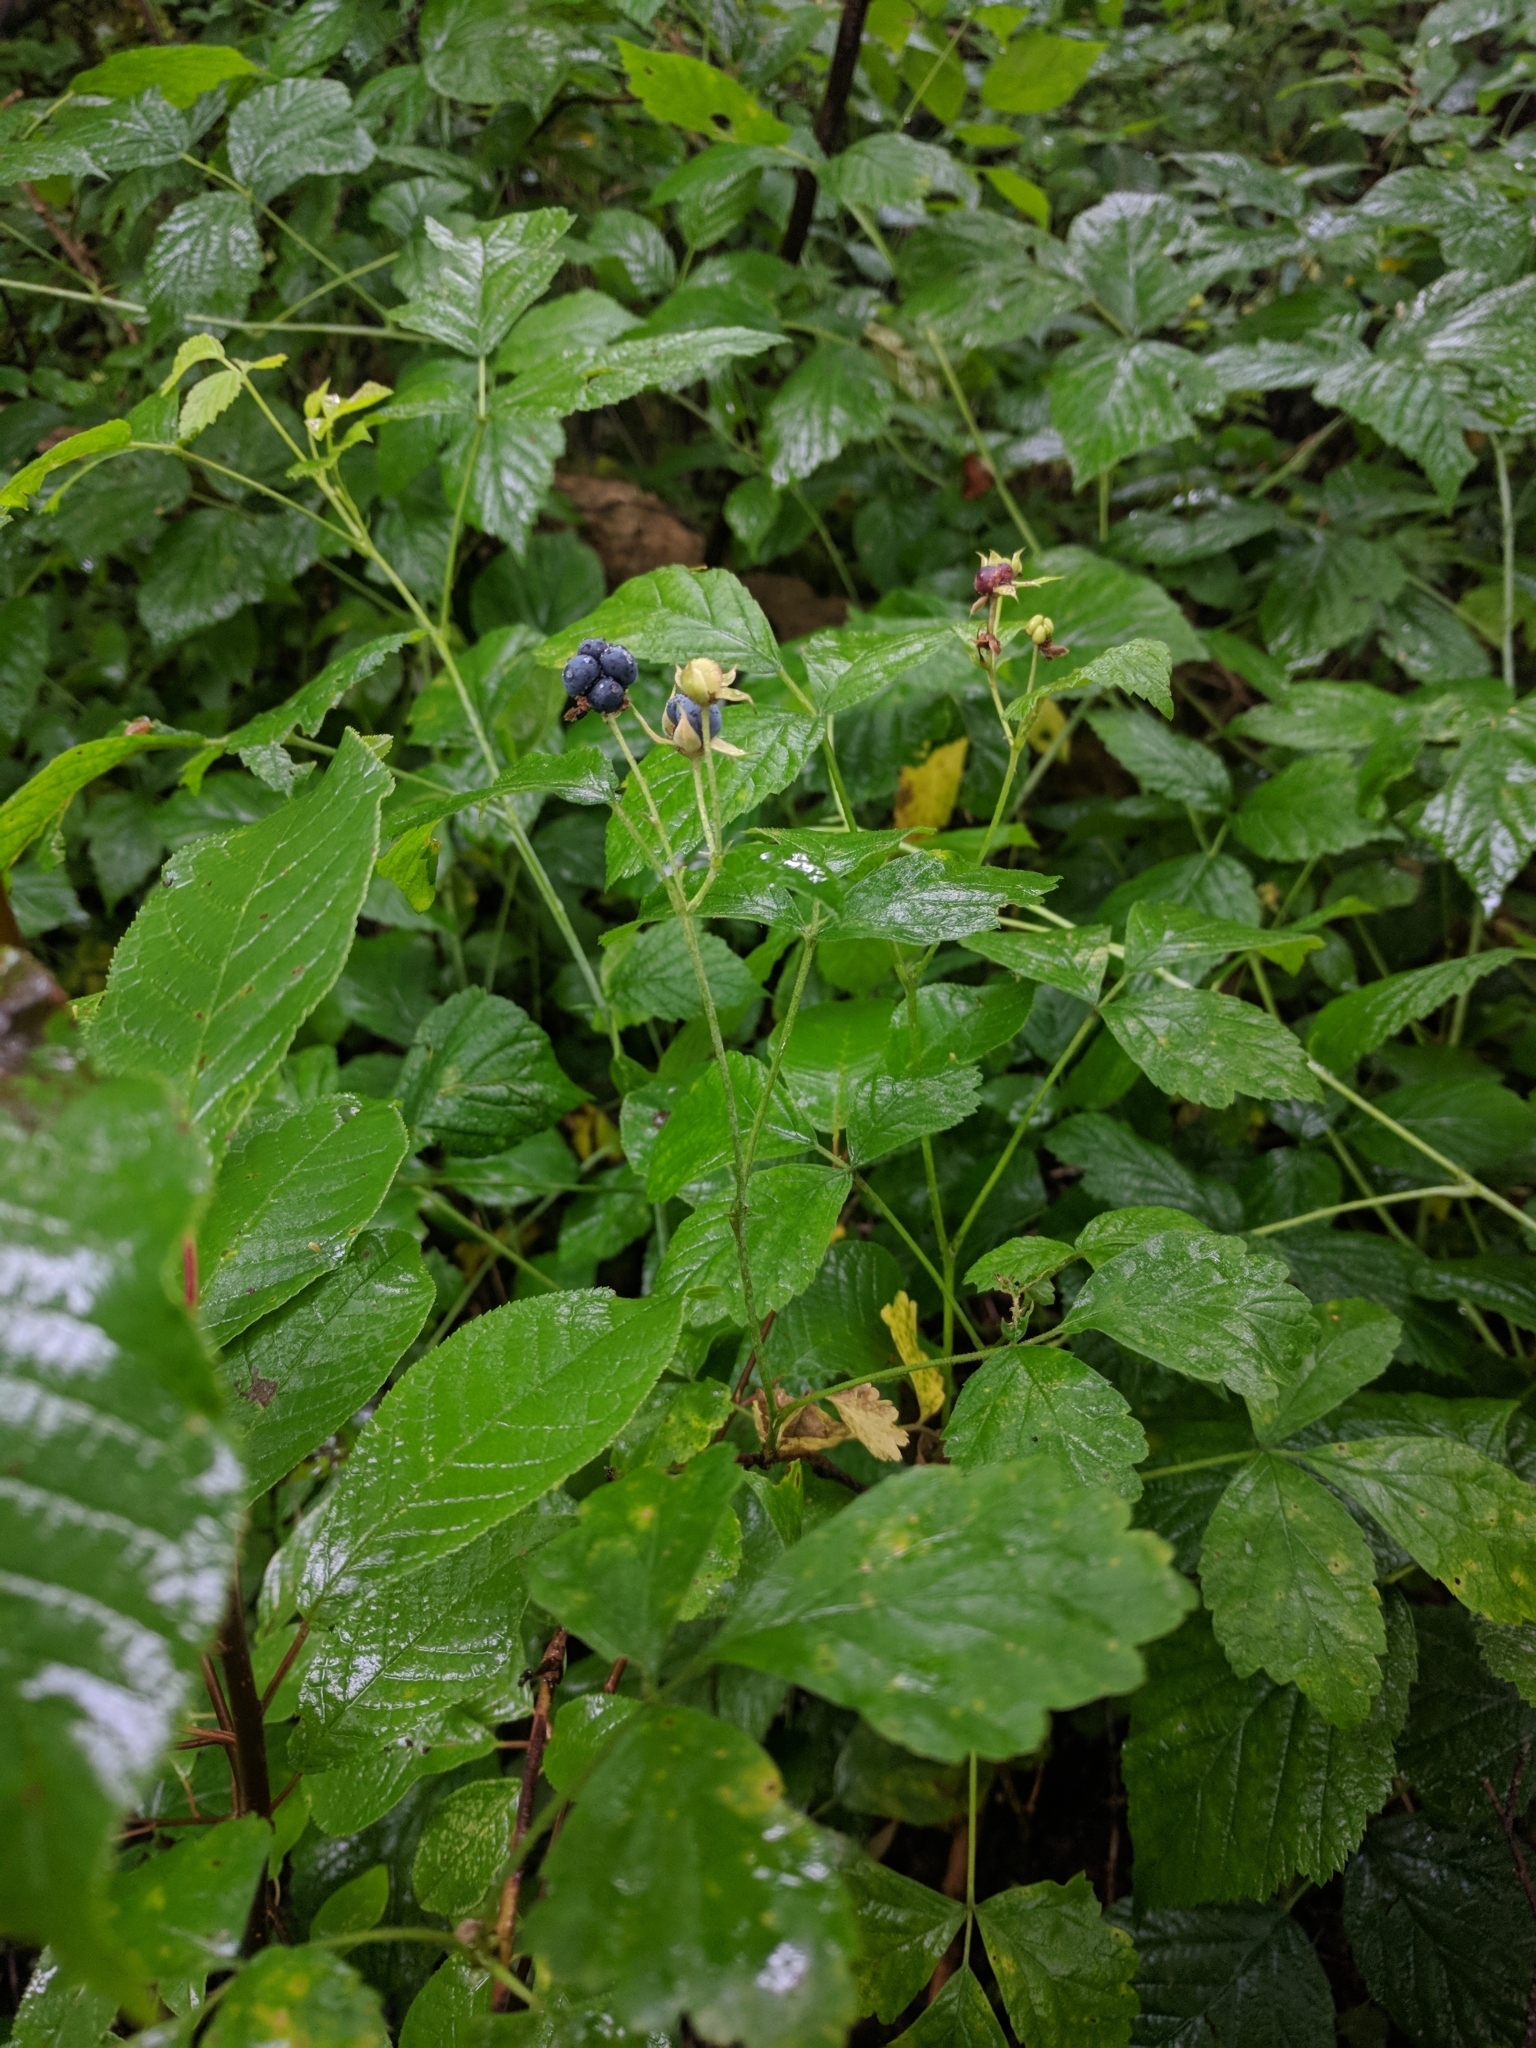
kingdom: Plantae
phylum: Tracheophyta
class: Magnoliopsida
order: Rosales
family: Rosaceae
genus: Rubus
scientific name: Rubus caesius
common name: Dewberry
